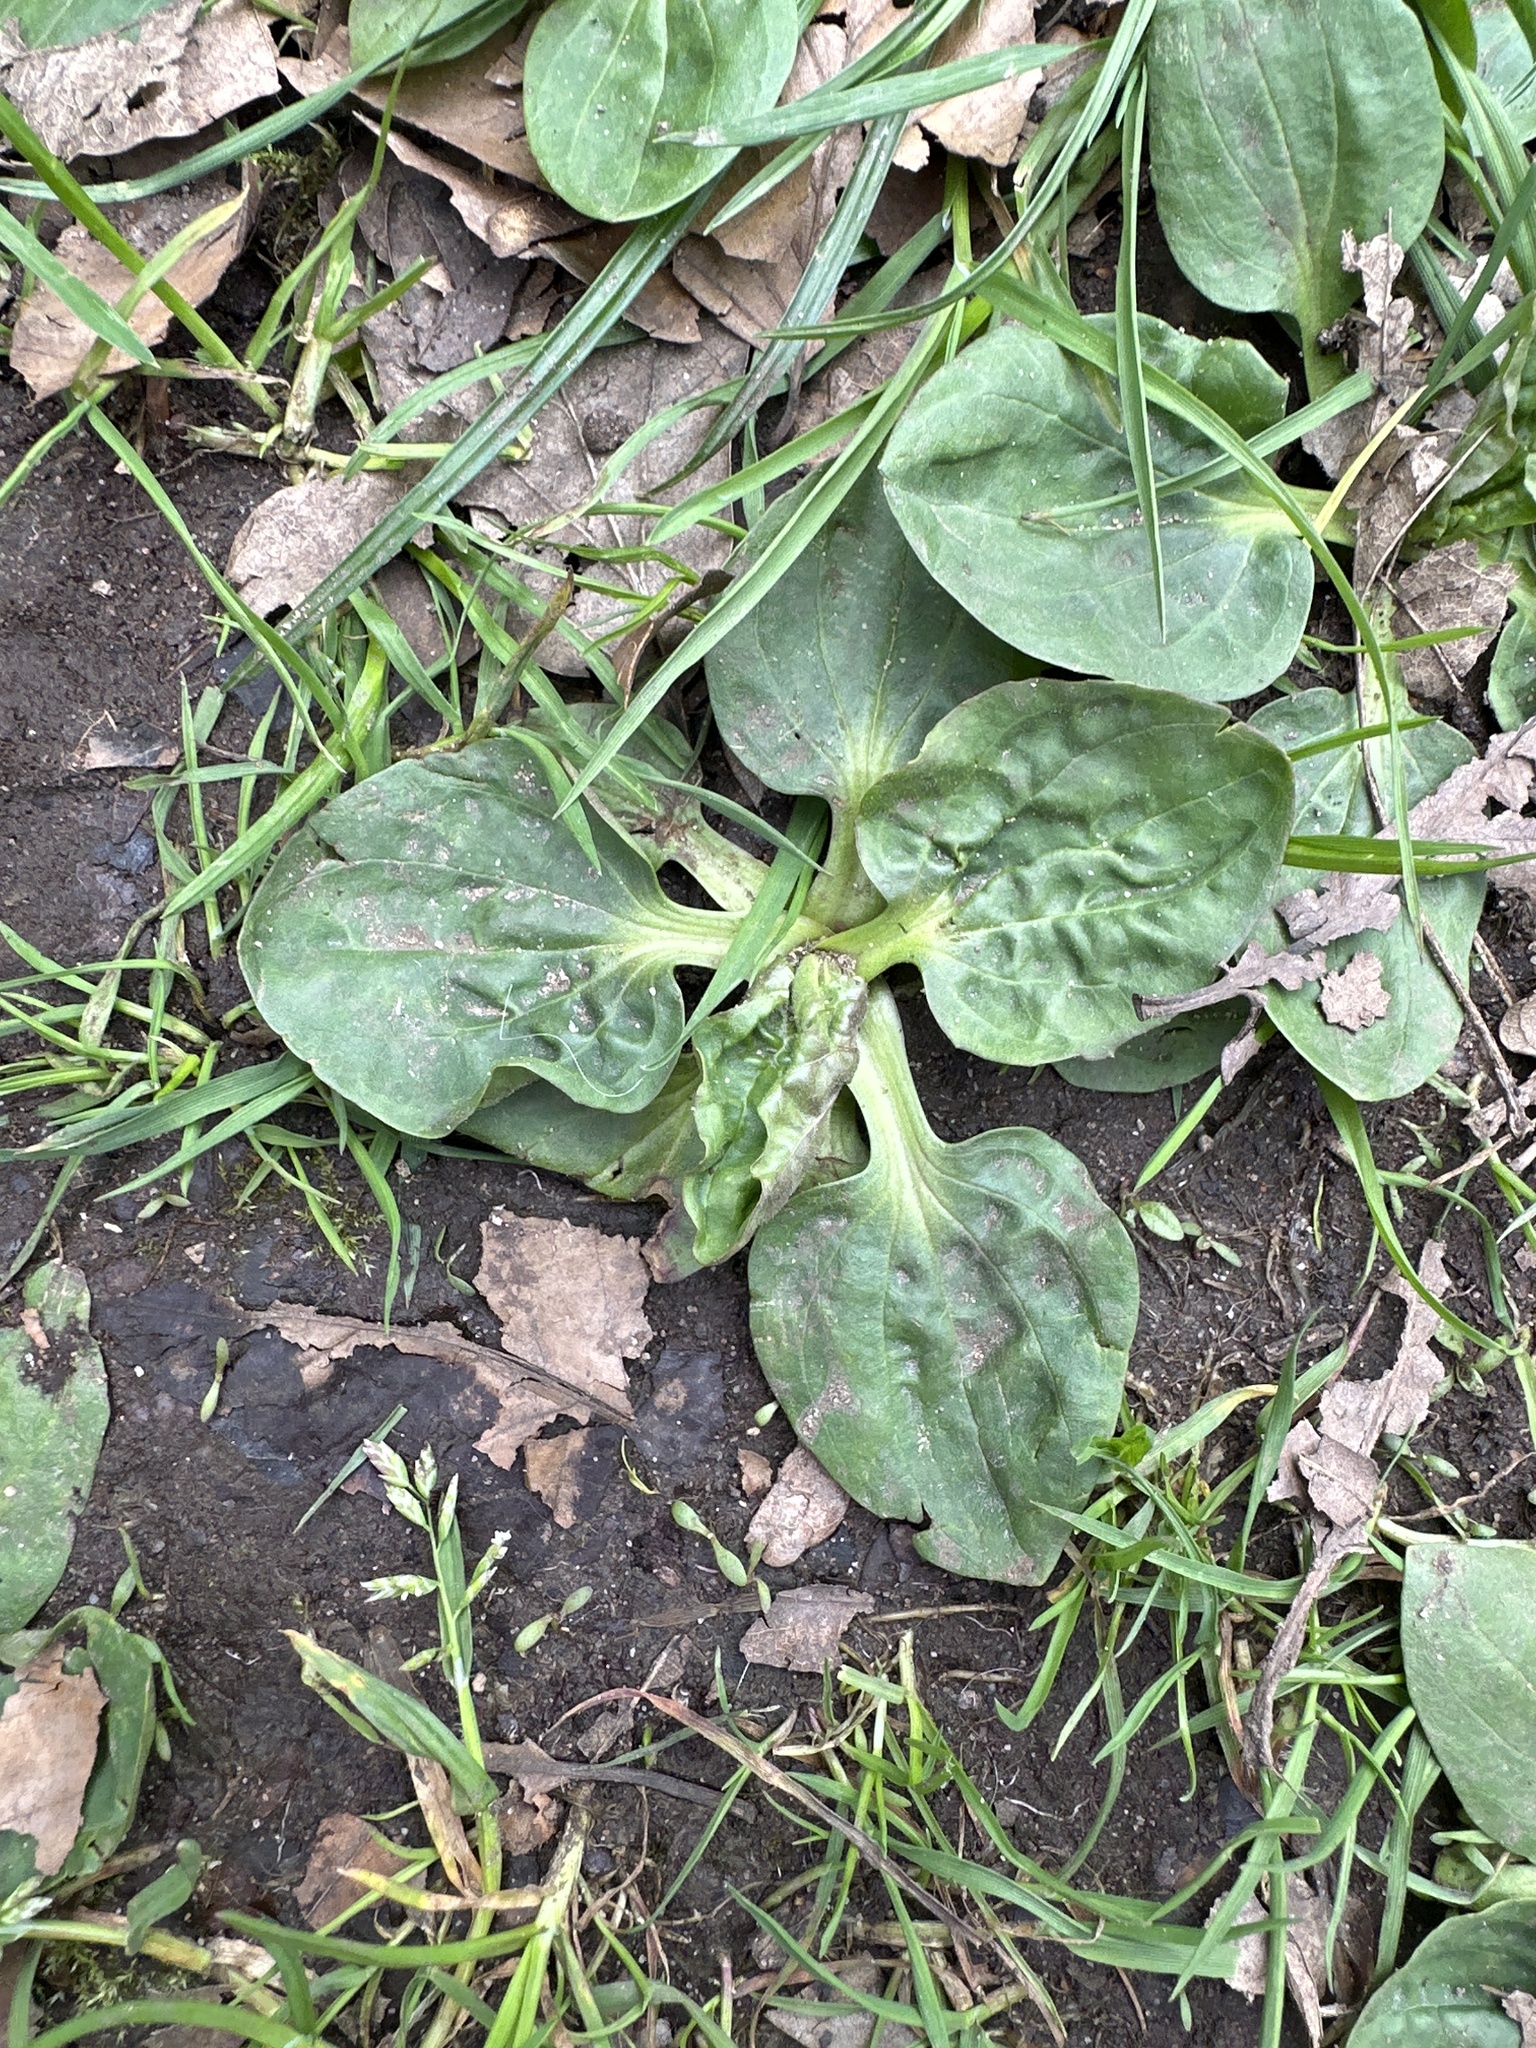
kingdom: Plantae
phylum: Tracheophyta
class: Magnoliopsida
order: Lamiales
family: Plantaginaceae
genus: Plantago
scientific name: Plantago major
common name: Common plantain
